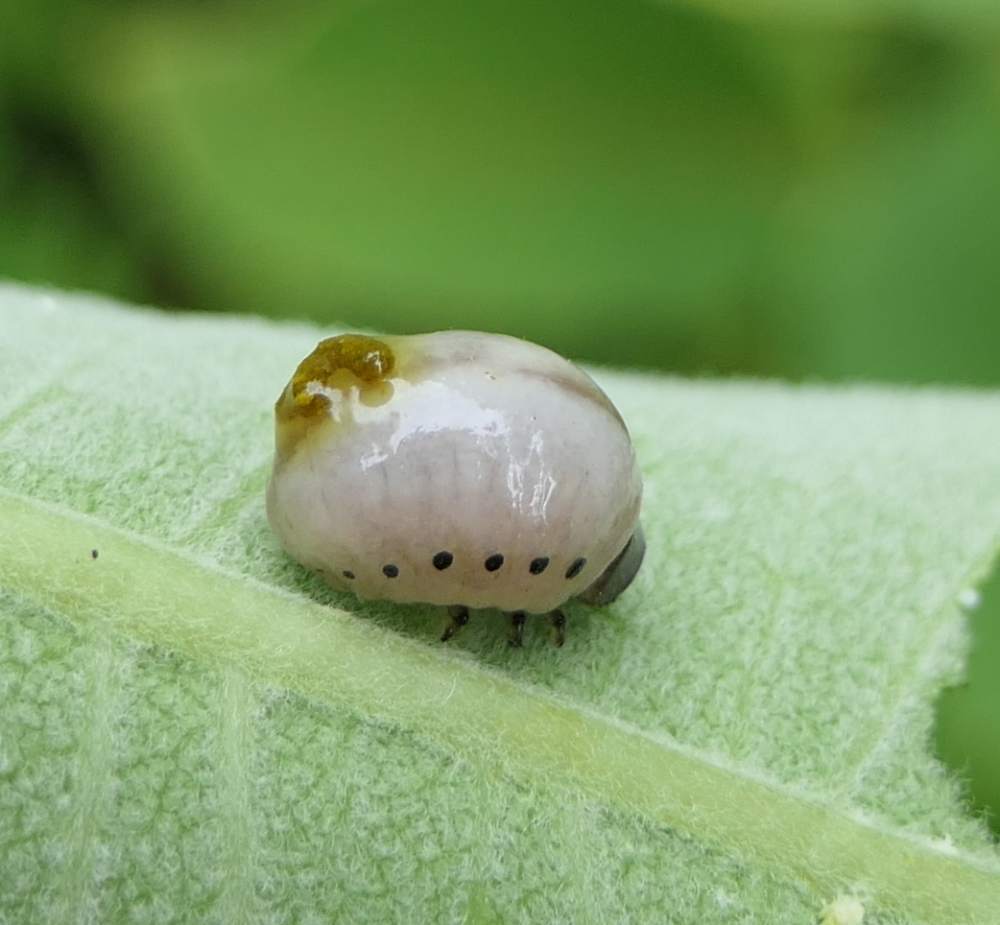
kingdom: Animalia
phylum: Arthropoda
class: Insecta
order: Coleoptera
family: Chrysomelidae
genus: Labidomera
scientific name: Labidomera clivicollis
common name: Swamp milkweed leaf beetle
